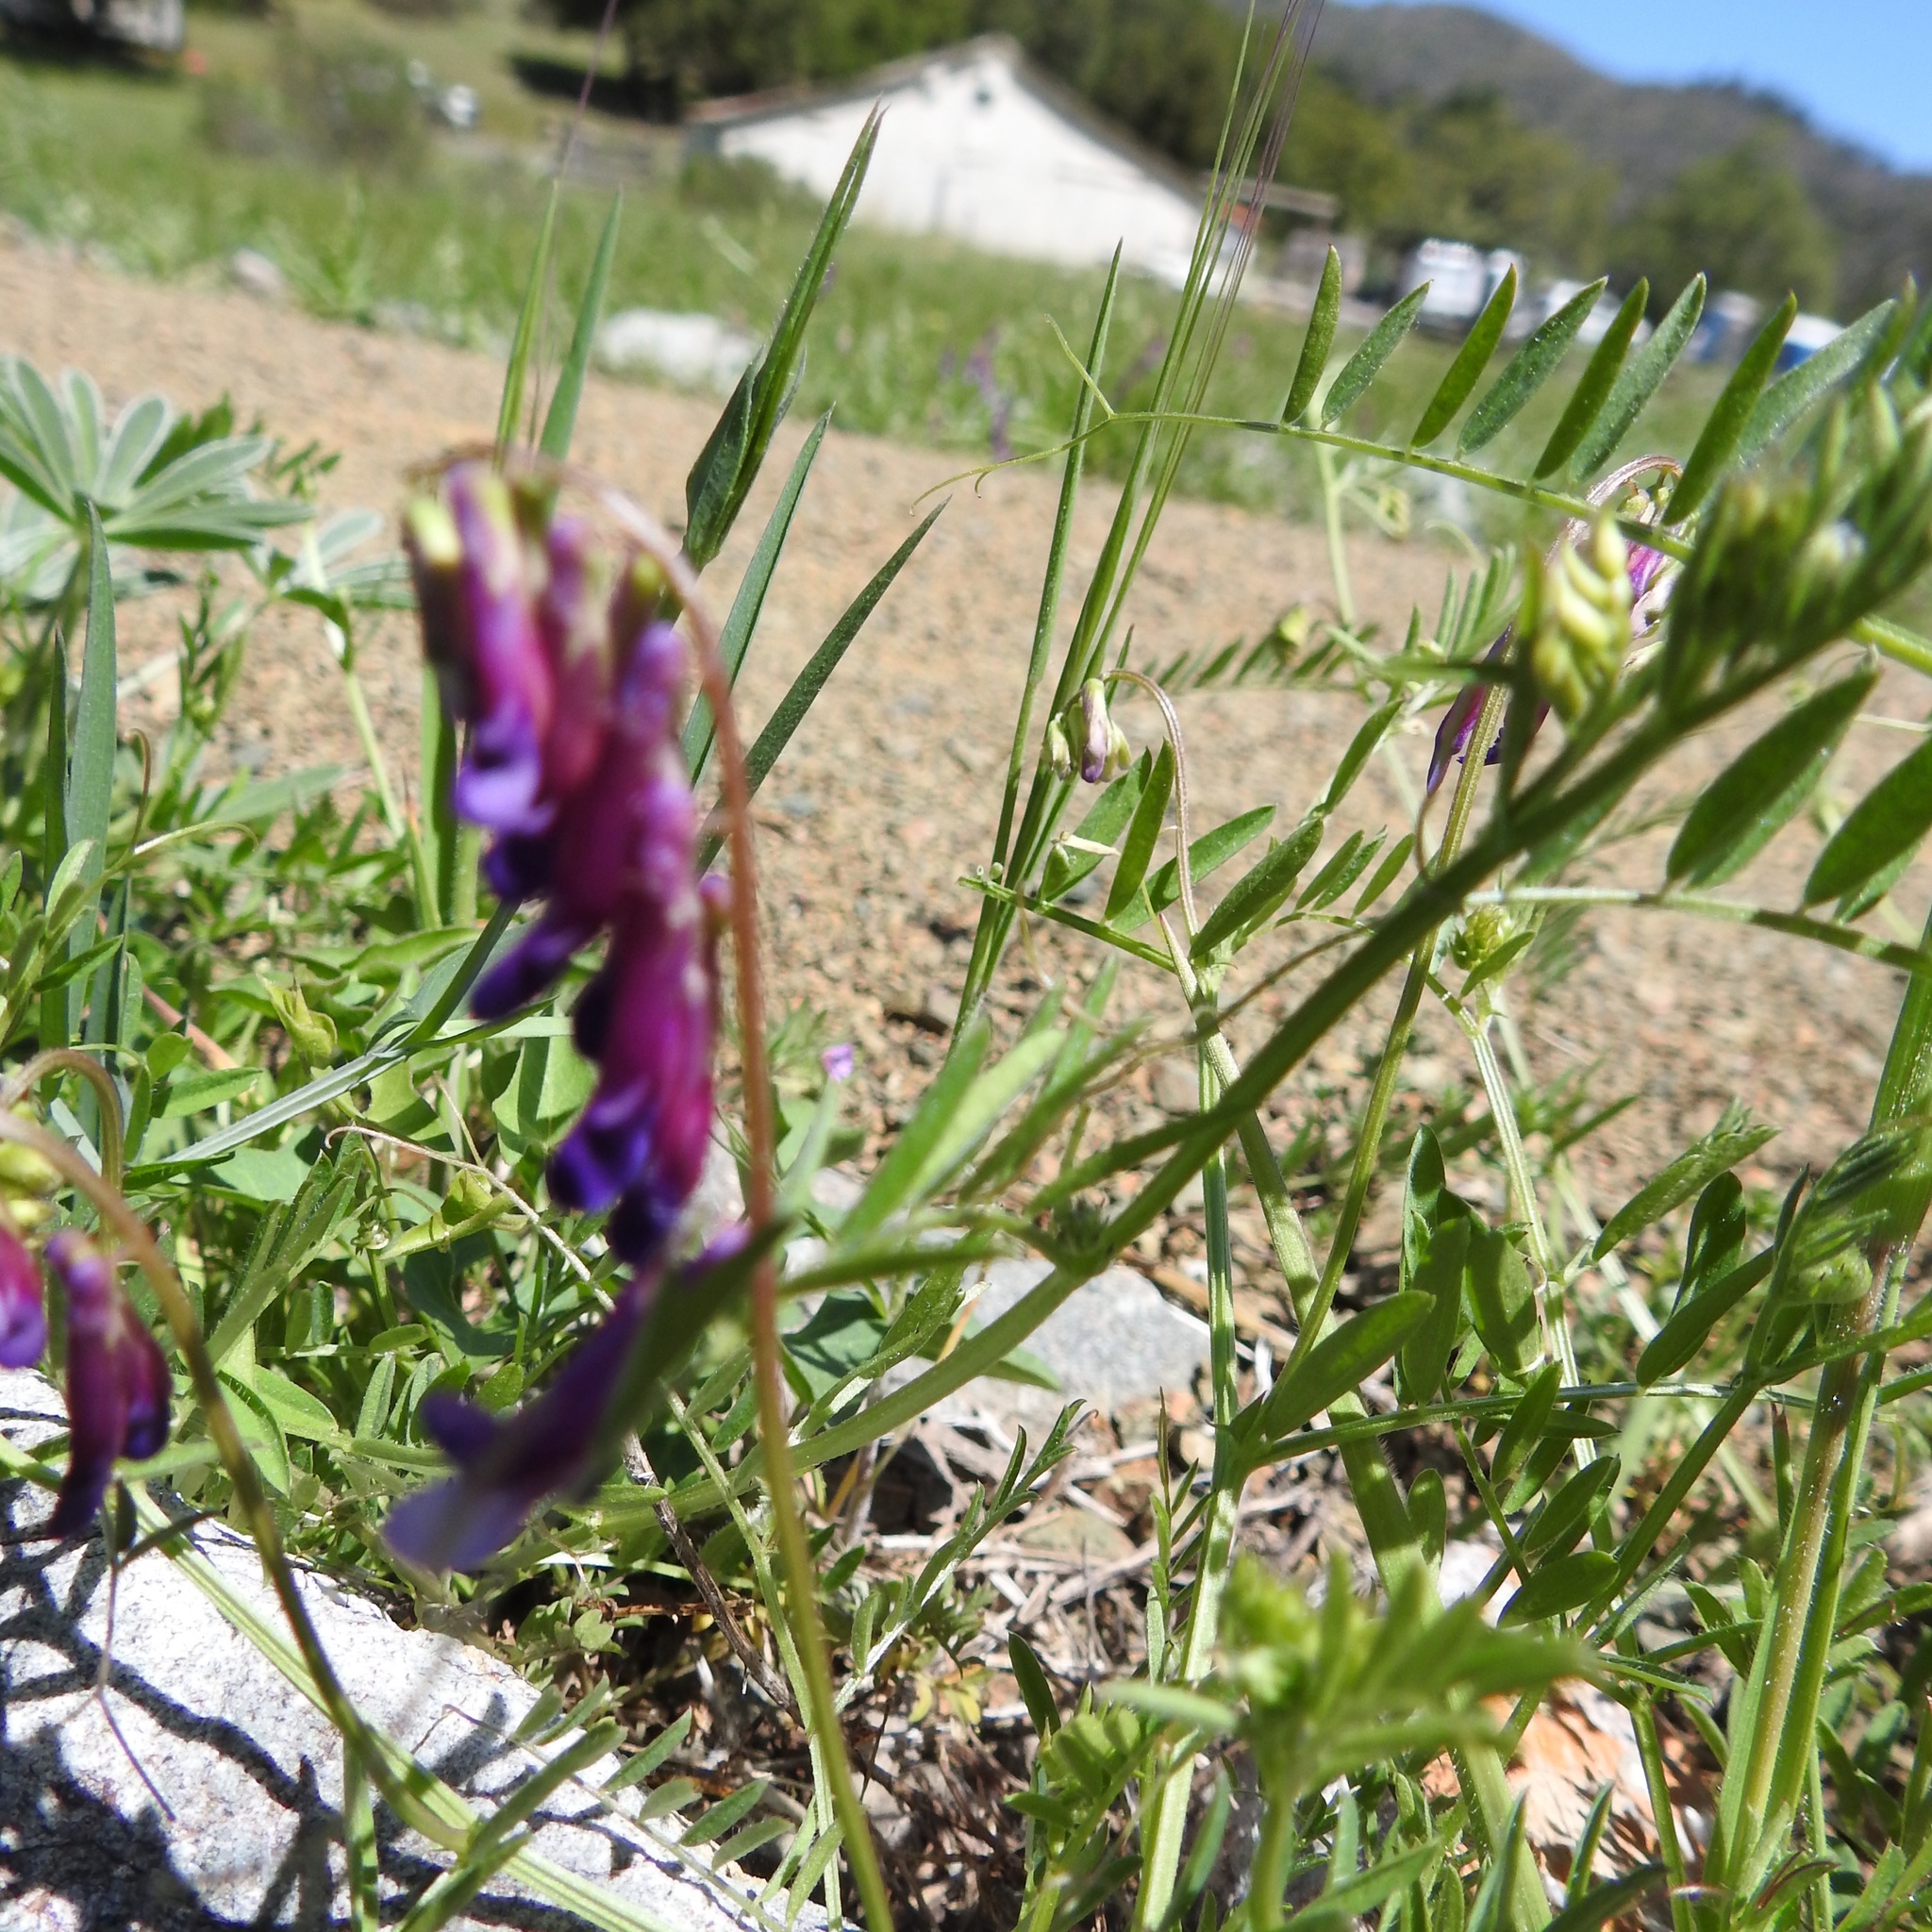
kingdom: Plantae
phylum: Tracheophyta
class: Magnoliopsida
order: Fabales
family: Fabaceae
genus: Vicia
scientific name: Vicia villosa
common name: Fodder vetch
